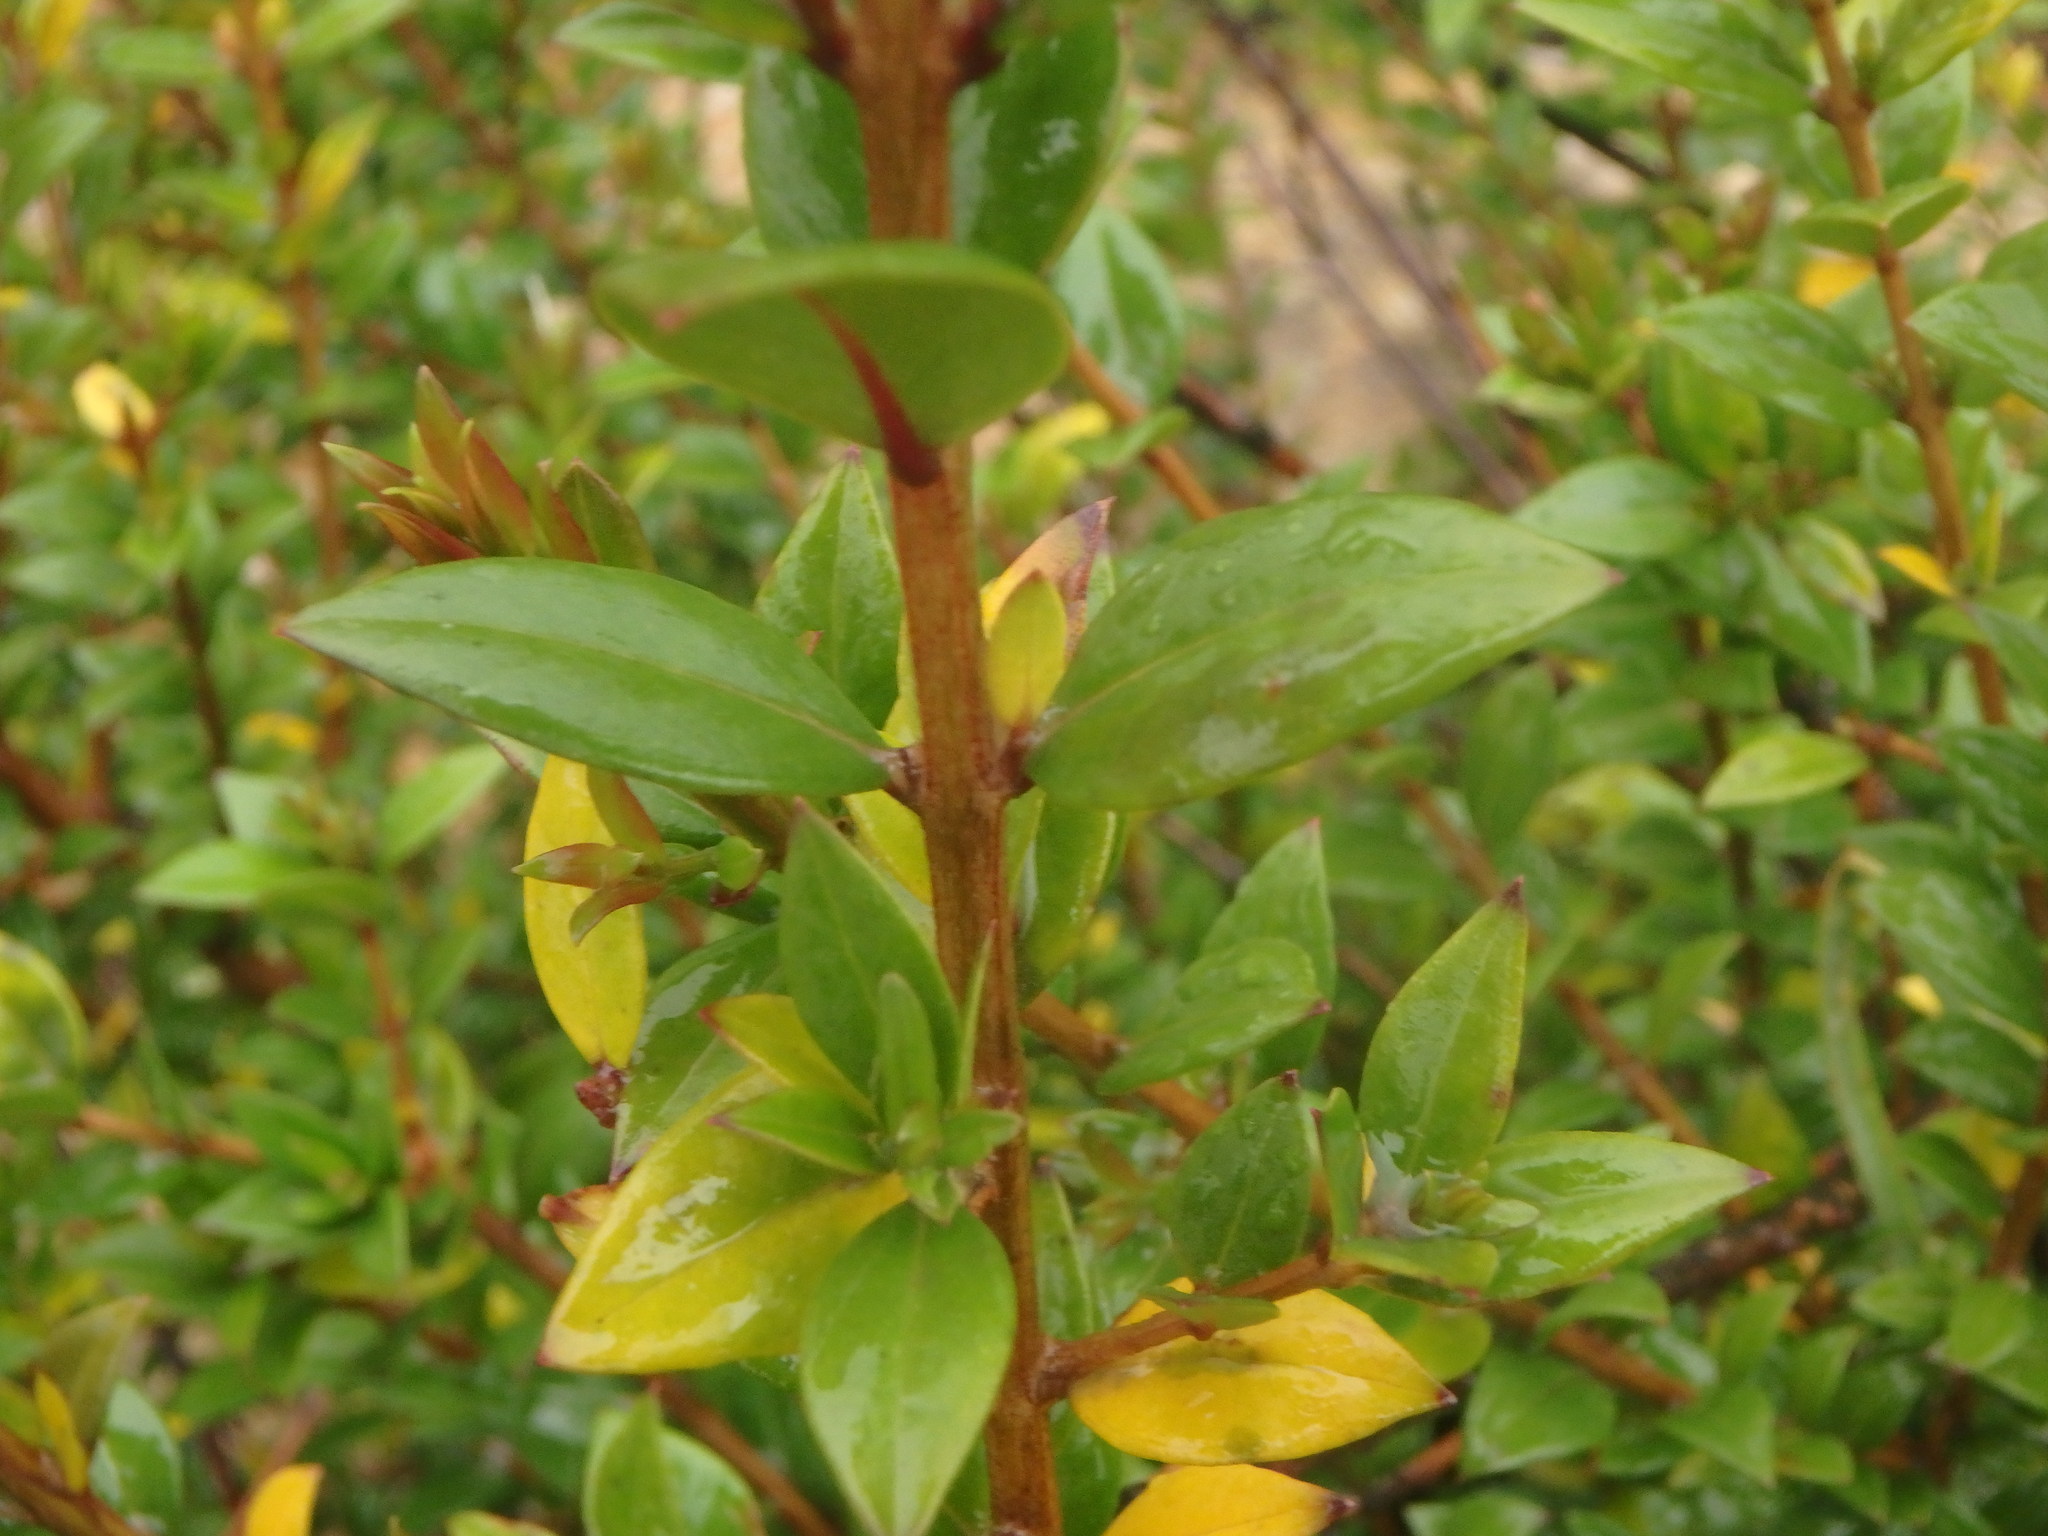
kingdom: Plantae
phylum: Tracheophyta
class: Magnoliopsida
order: Myrtales
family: Myrtaceae
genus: Myrtus
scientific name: Myrtus communis
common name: Myrtle
